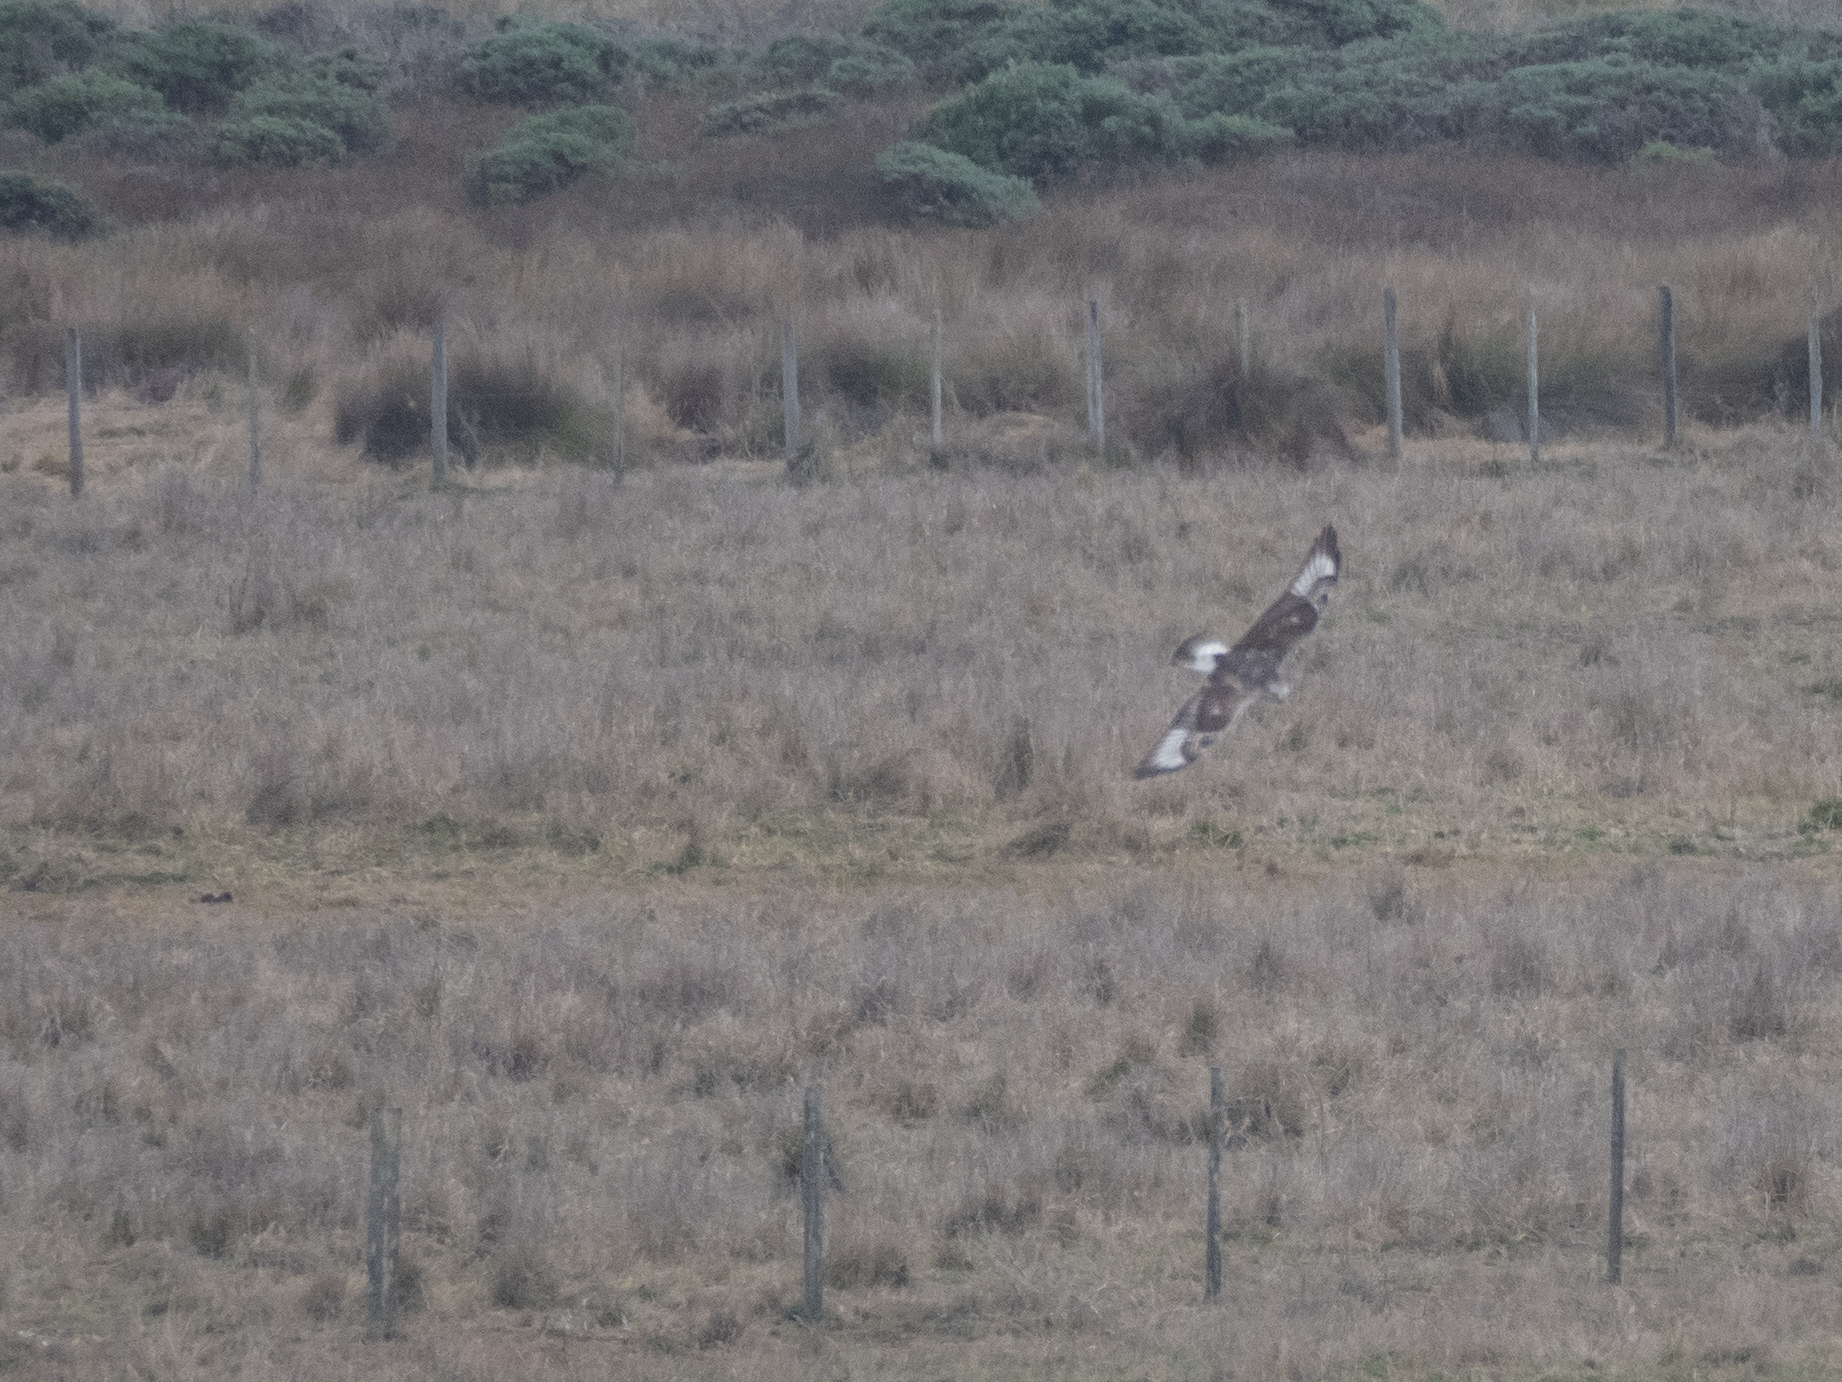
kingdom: Animalia
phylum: Chordata
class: Aves
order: Accipitriformes
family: Accipitridae
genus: Buteo
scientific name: Buteo regalis
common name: Ferruginous hawk
